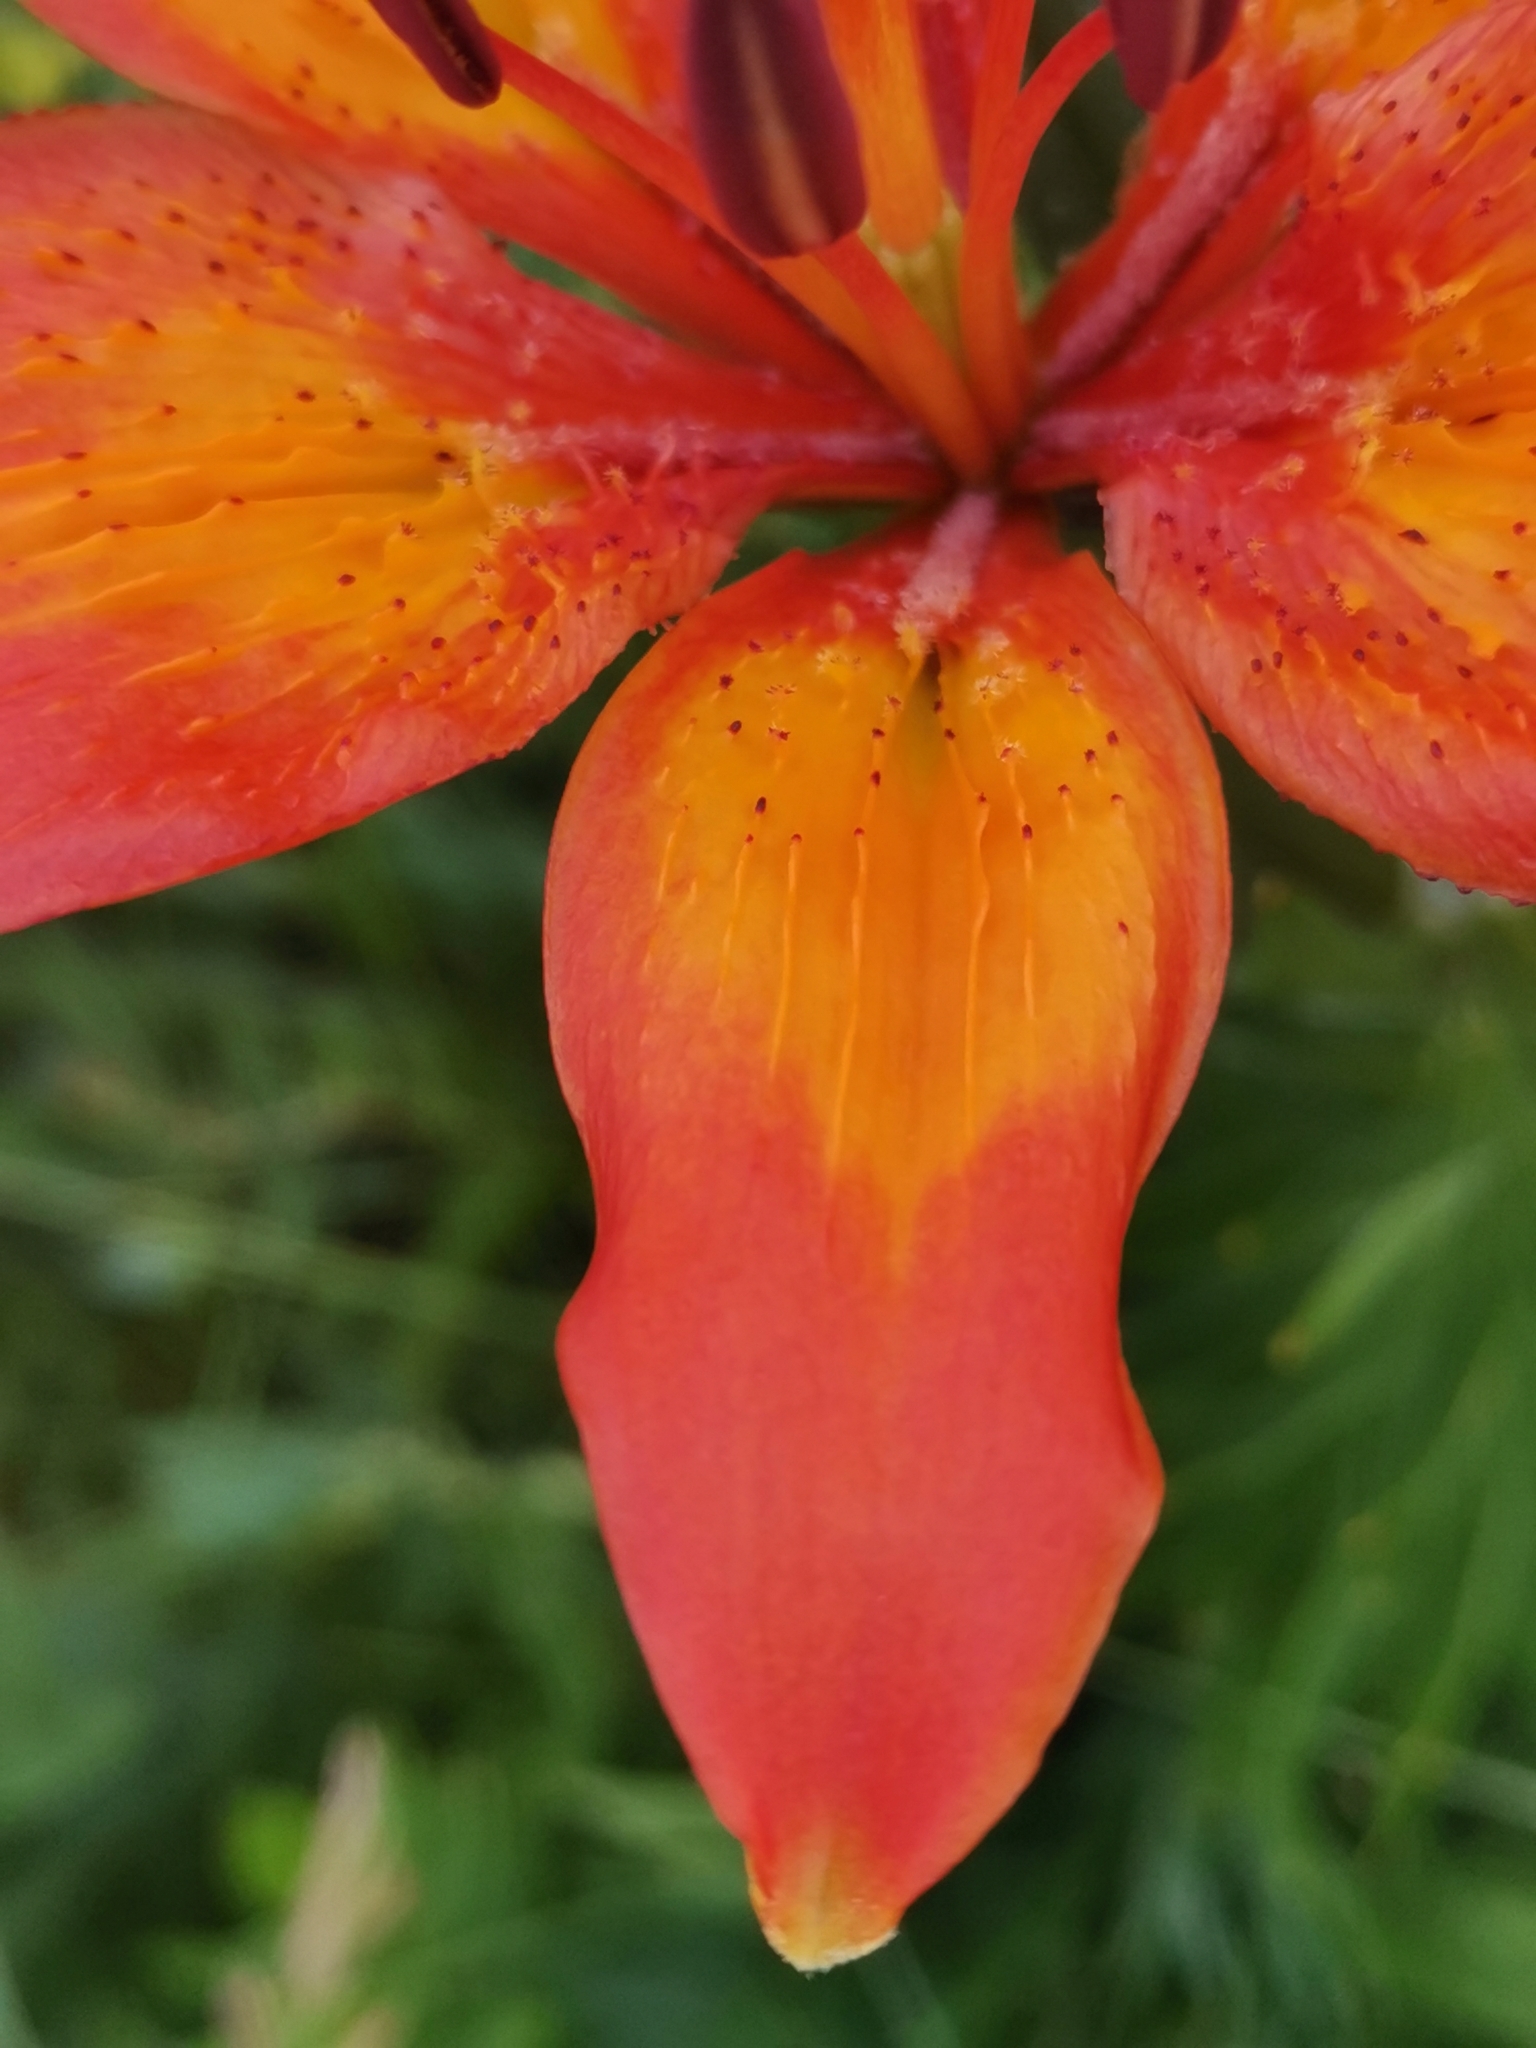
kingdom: Plantae
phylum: Tracheophyta
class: Liliopsida
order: Liliales
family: Liliaceae
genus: Lilium
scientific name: Lilium bulbiferum
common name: Orange lily
